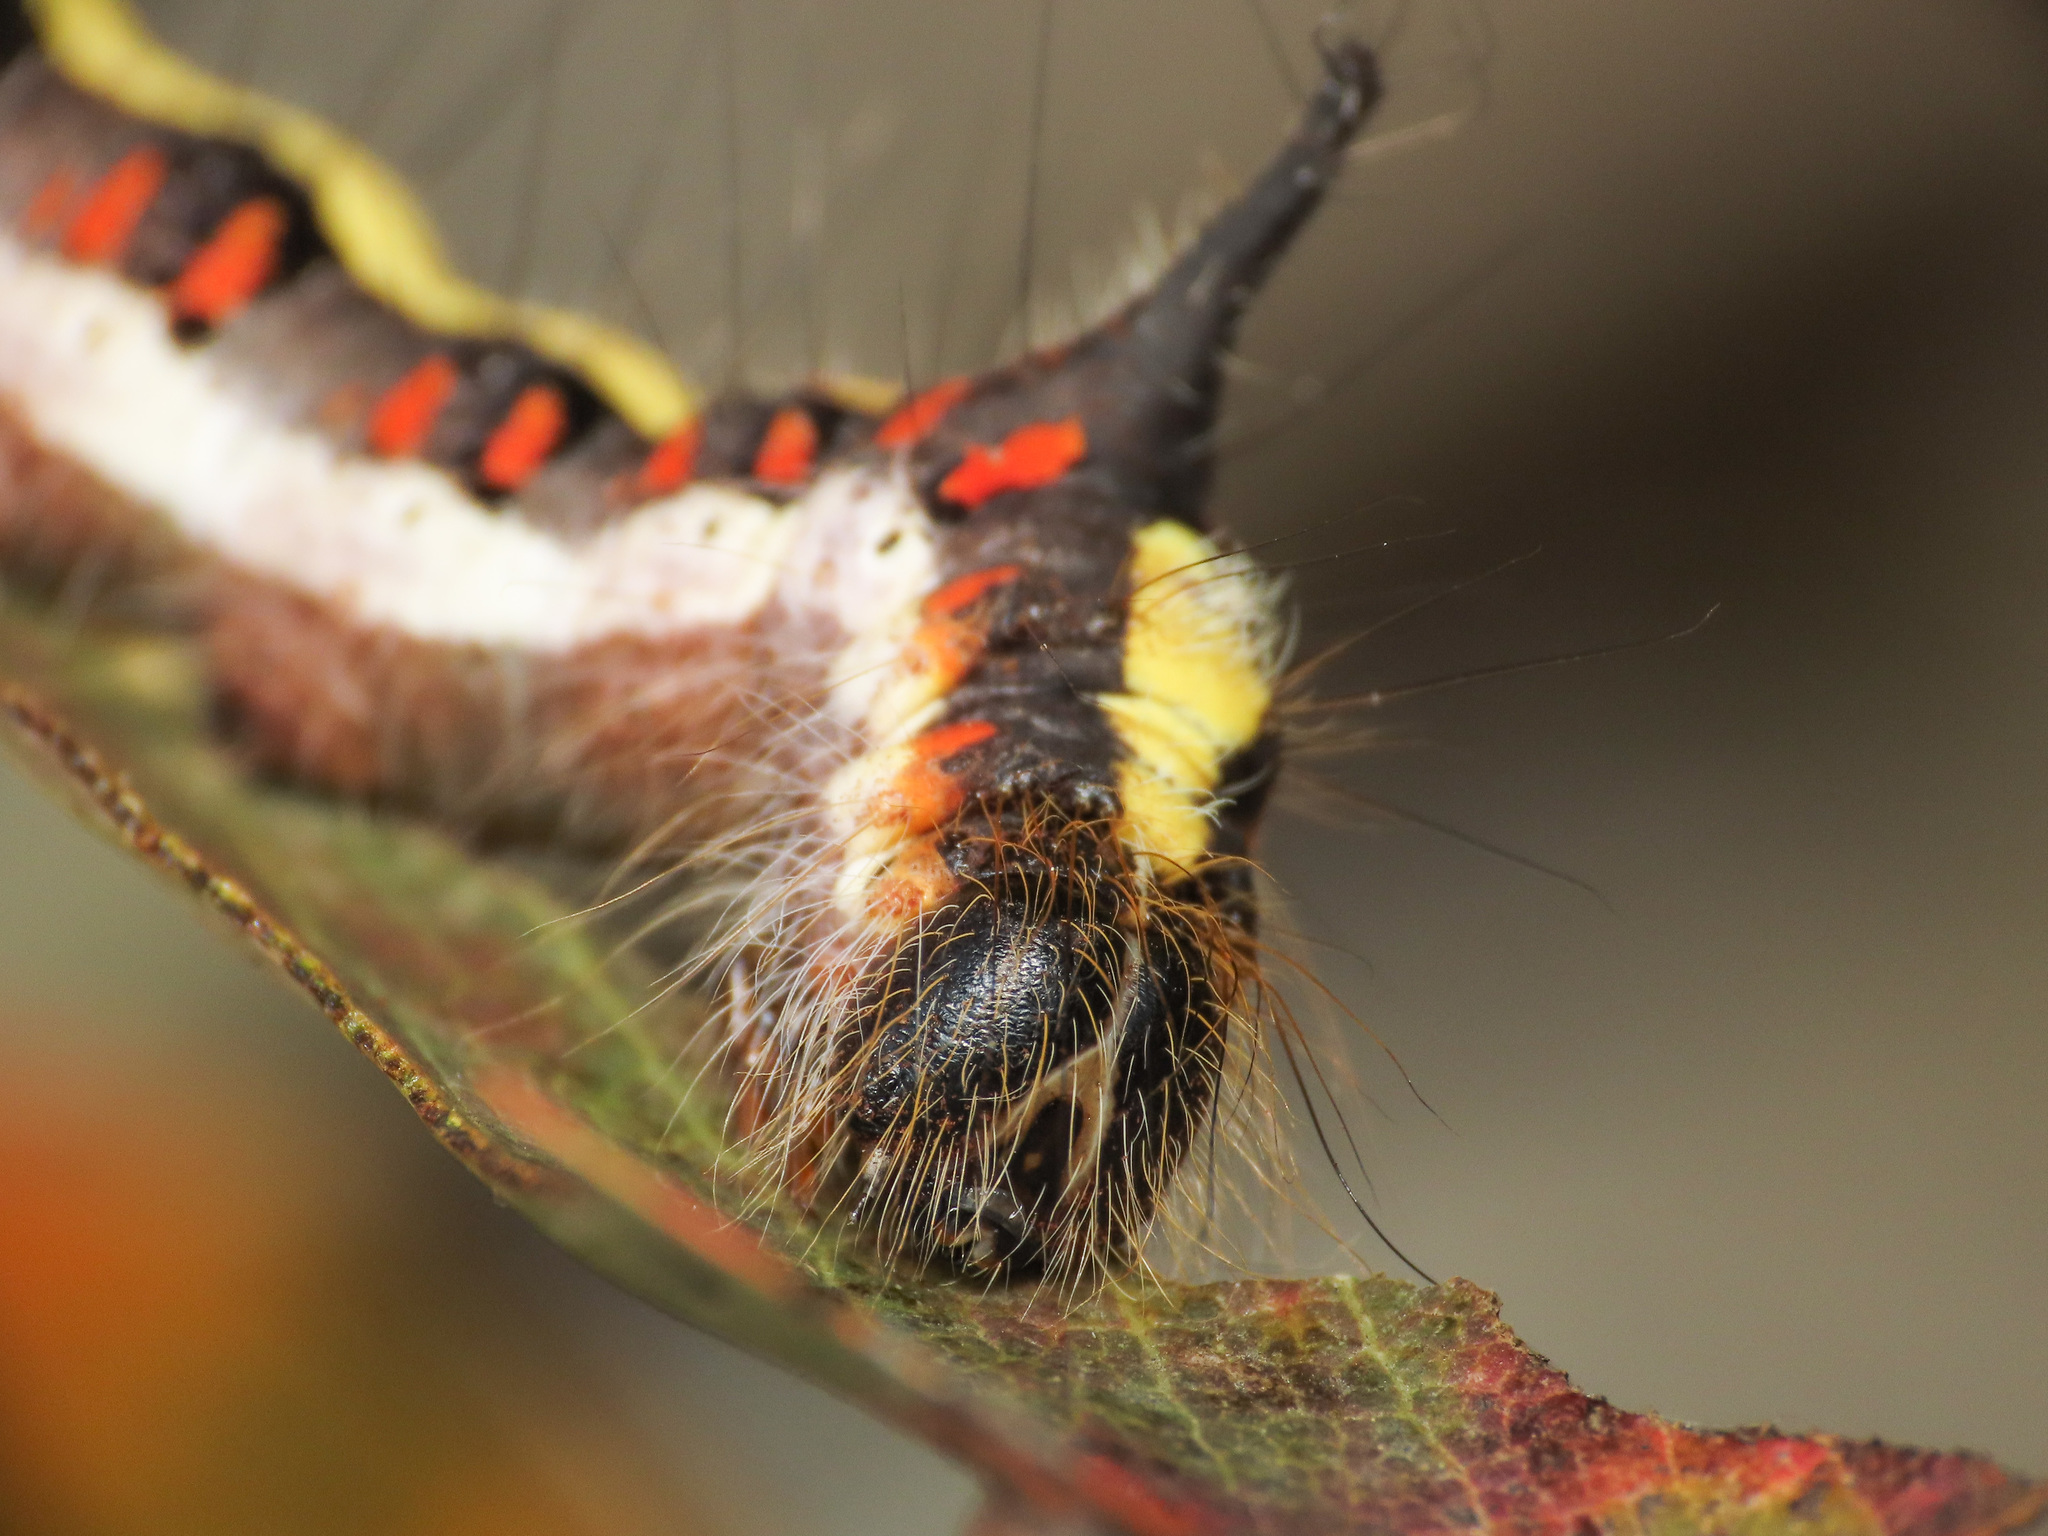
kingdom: Animalia
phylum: Arthropoda
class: Insecta
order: Lepidoptera
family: Noctuidae
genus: Acronicta
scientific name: Acronicta psi
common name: Grey dagger
